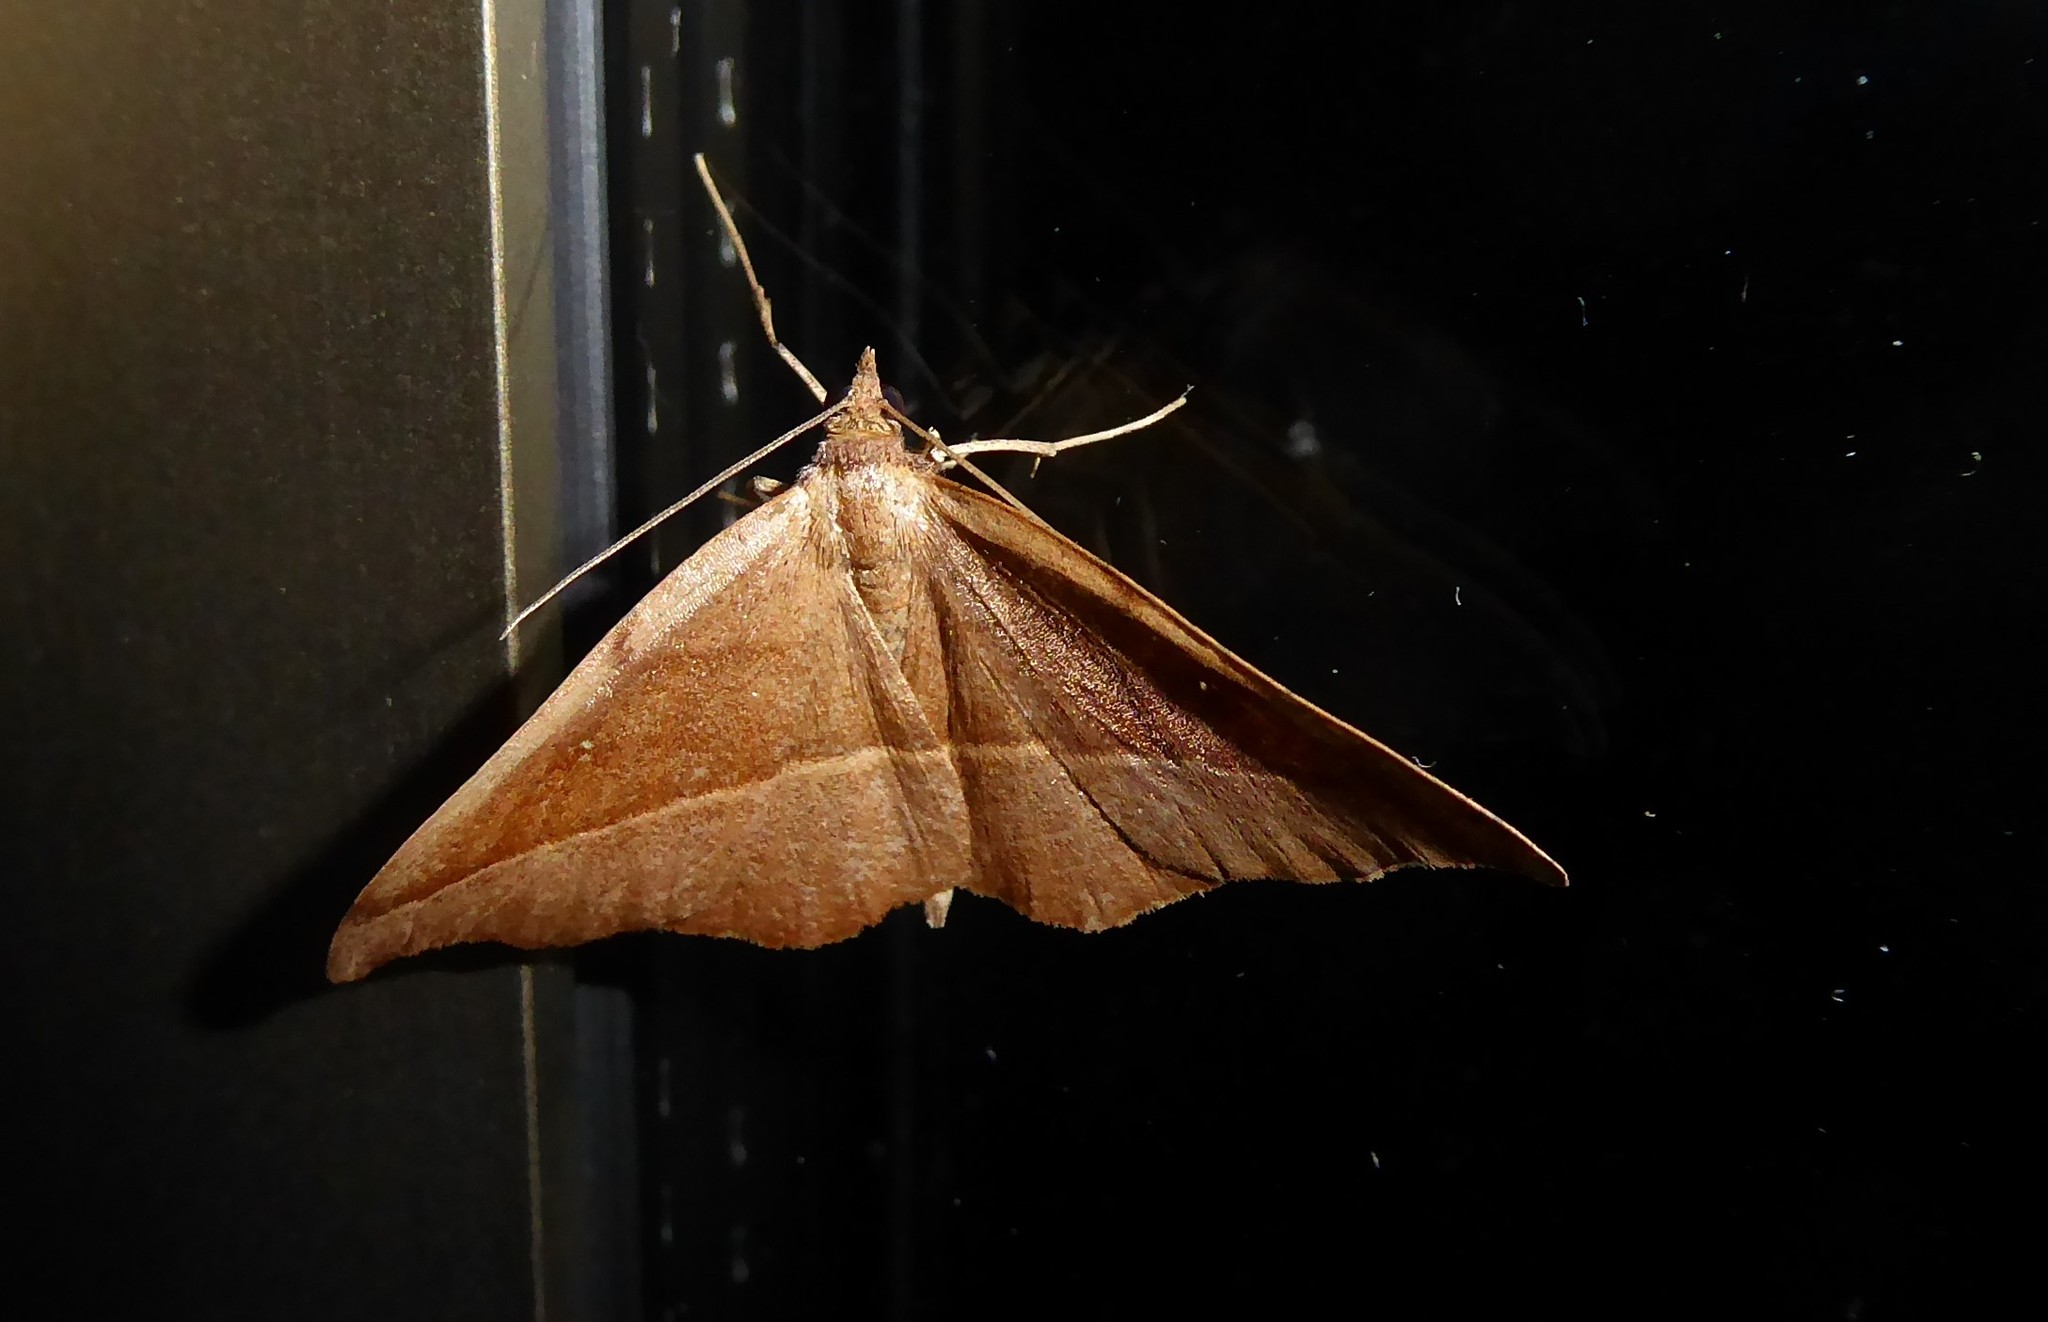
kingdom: Animalia
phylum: Arthropoda
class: Insecta
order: Lepidoptera
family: Geometridae
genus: Sarisa
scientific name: Sarisa muriferata
